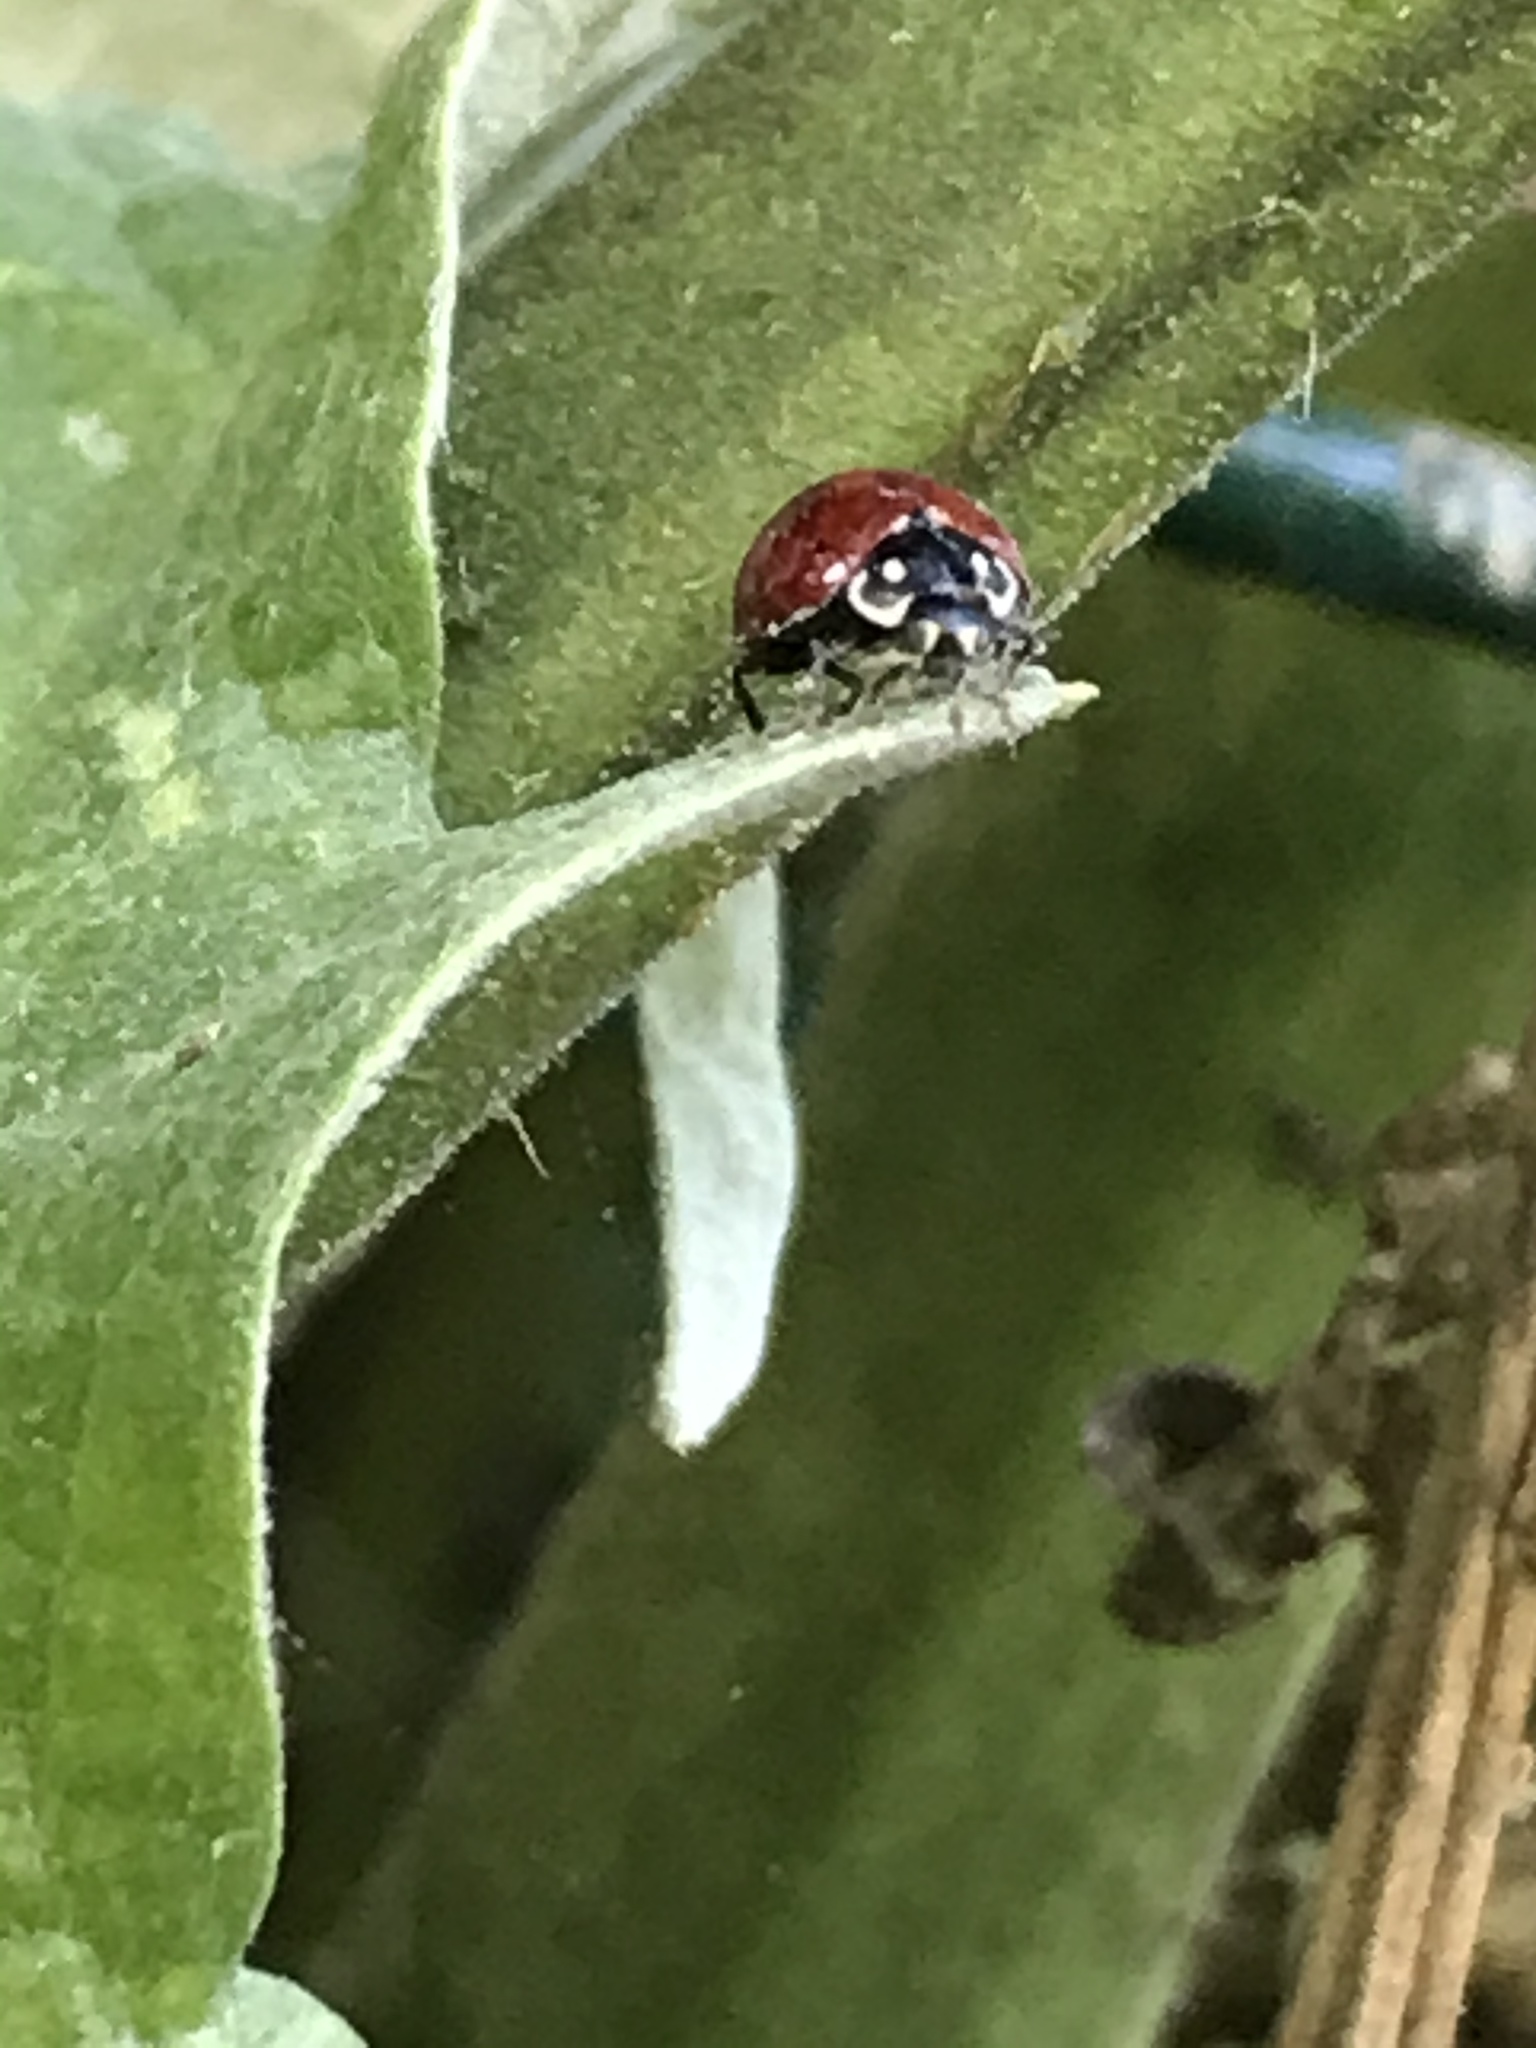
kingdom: Animalia
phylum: Arthropoda
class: Insecta
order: Coleoptera
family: Coccinellidae
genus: Cycloneda
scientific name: Cycloneda sanguinea
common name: Ladybird beetle
